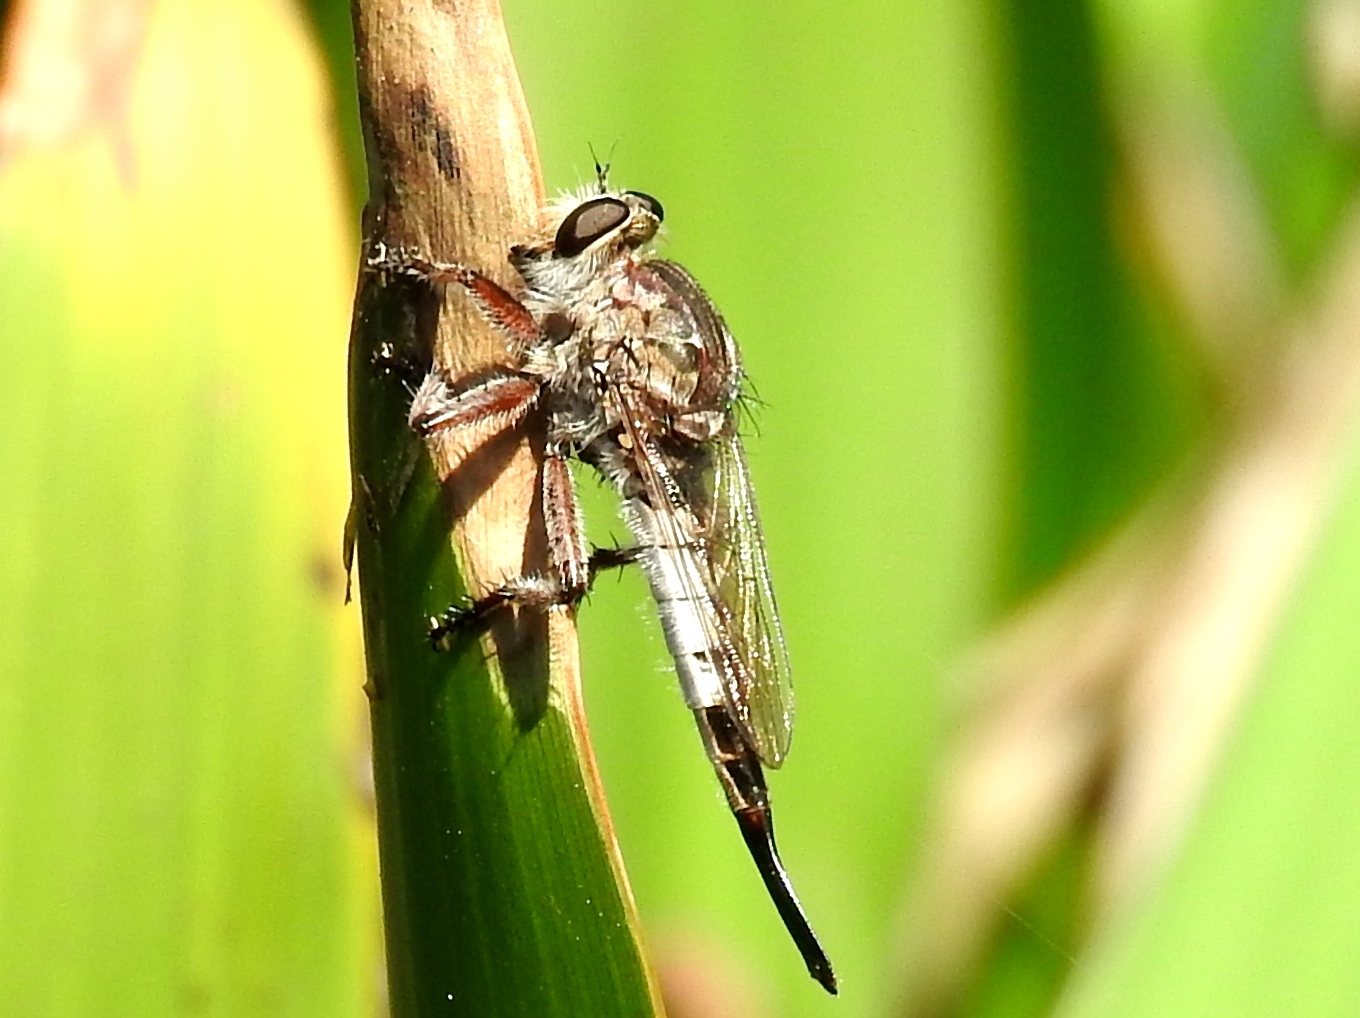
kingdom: Animalia
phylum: Arthropoda
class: Insecta
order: Diptera
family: Asilidae
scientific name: Asilidae
